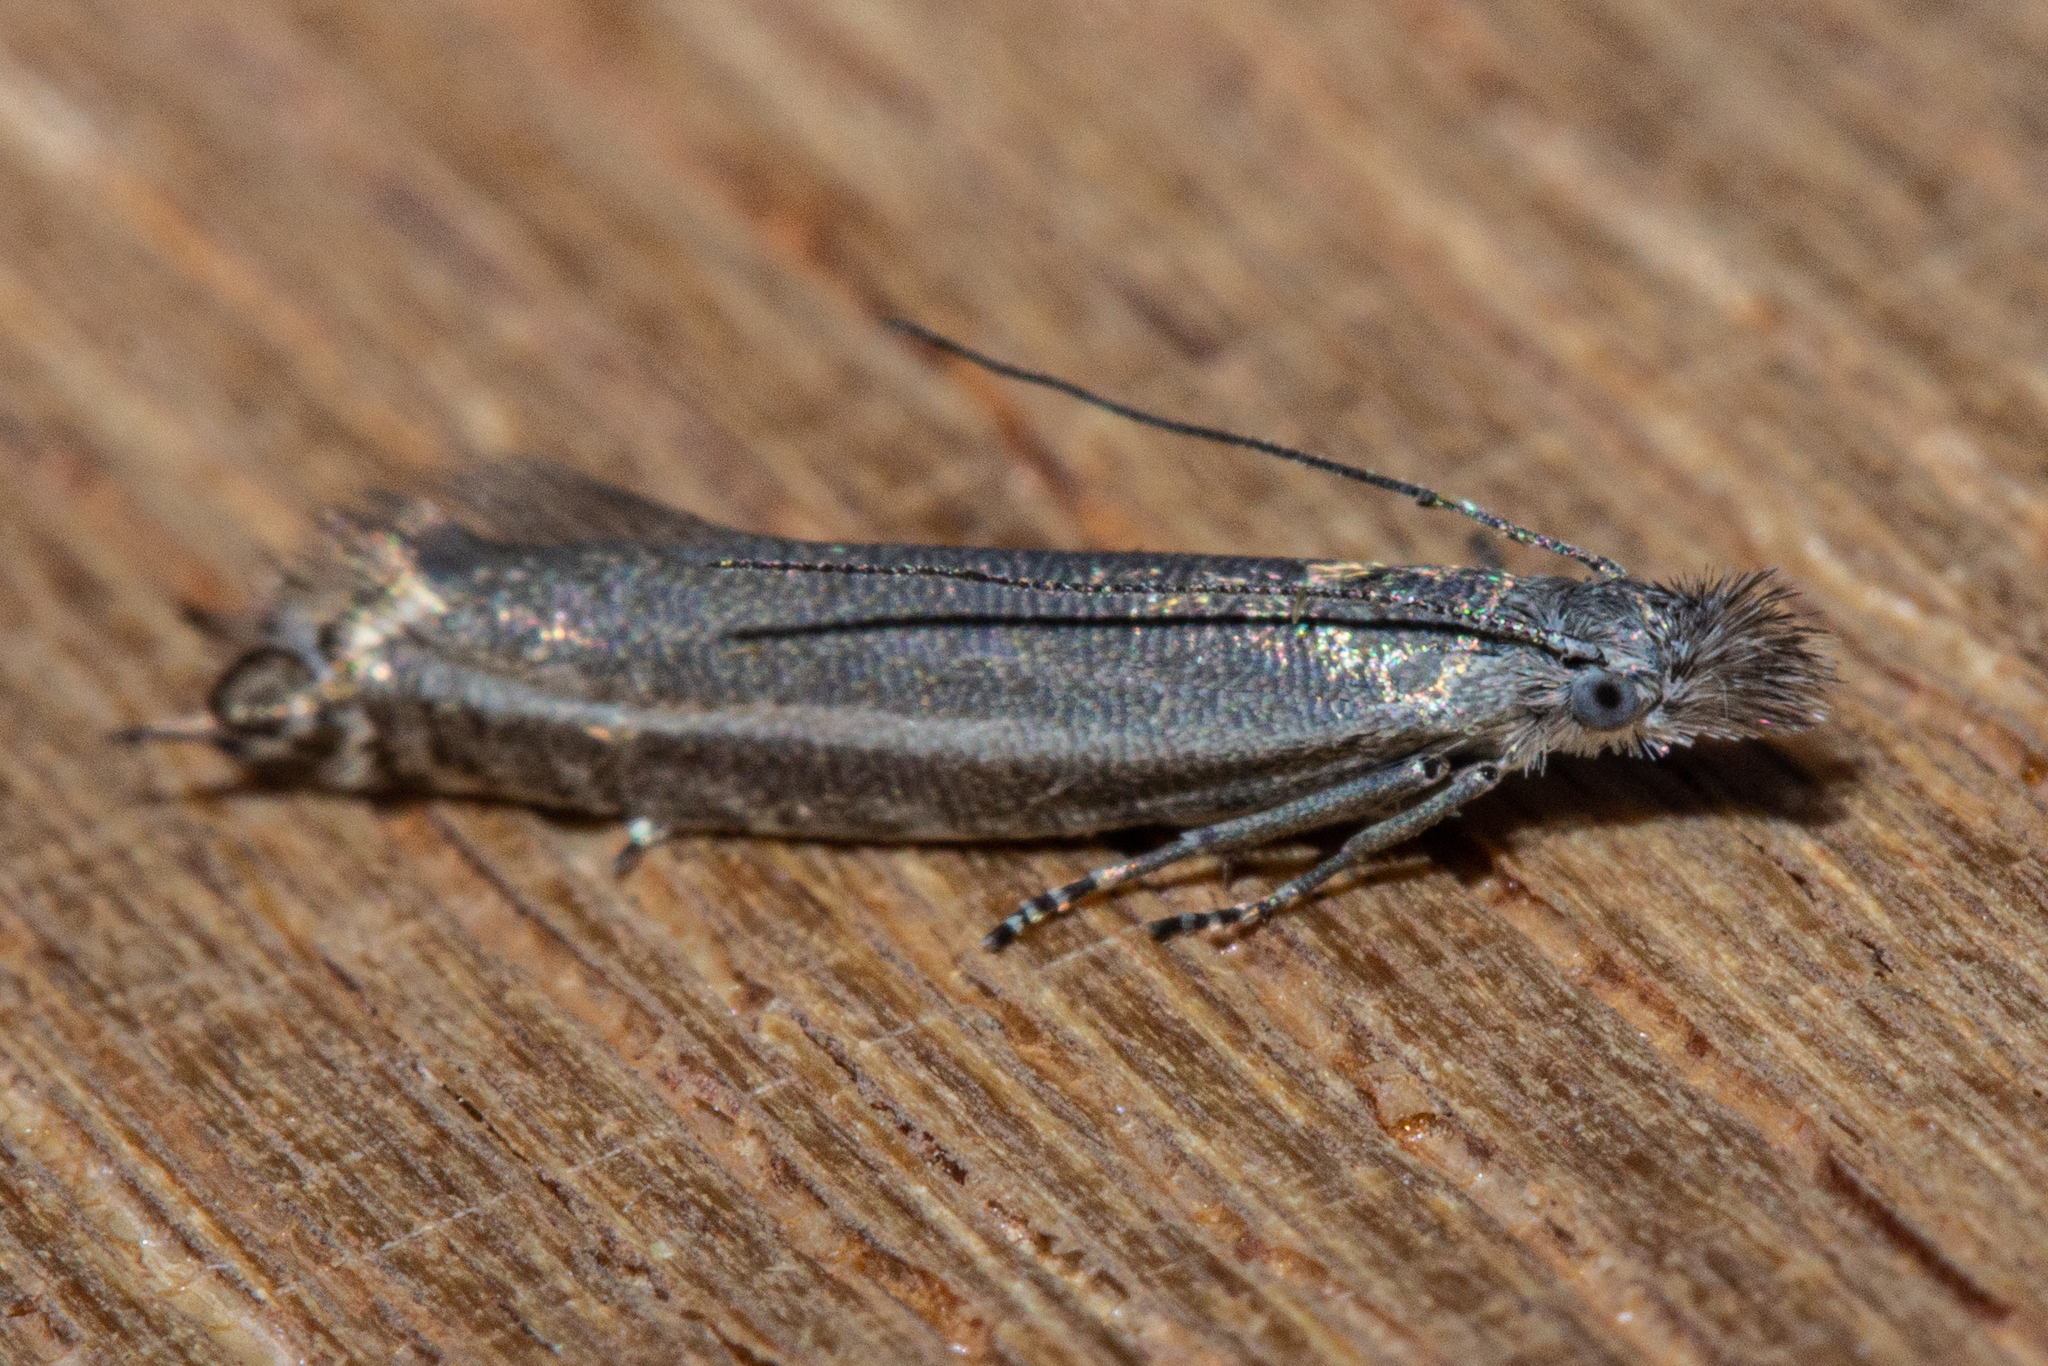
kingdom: Animalia
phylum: Arthropoda
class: Insecta
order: Lepidoptera
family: Glyphipterigidae
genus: Glyphipterix
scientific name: Glyphipterix barbata
